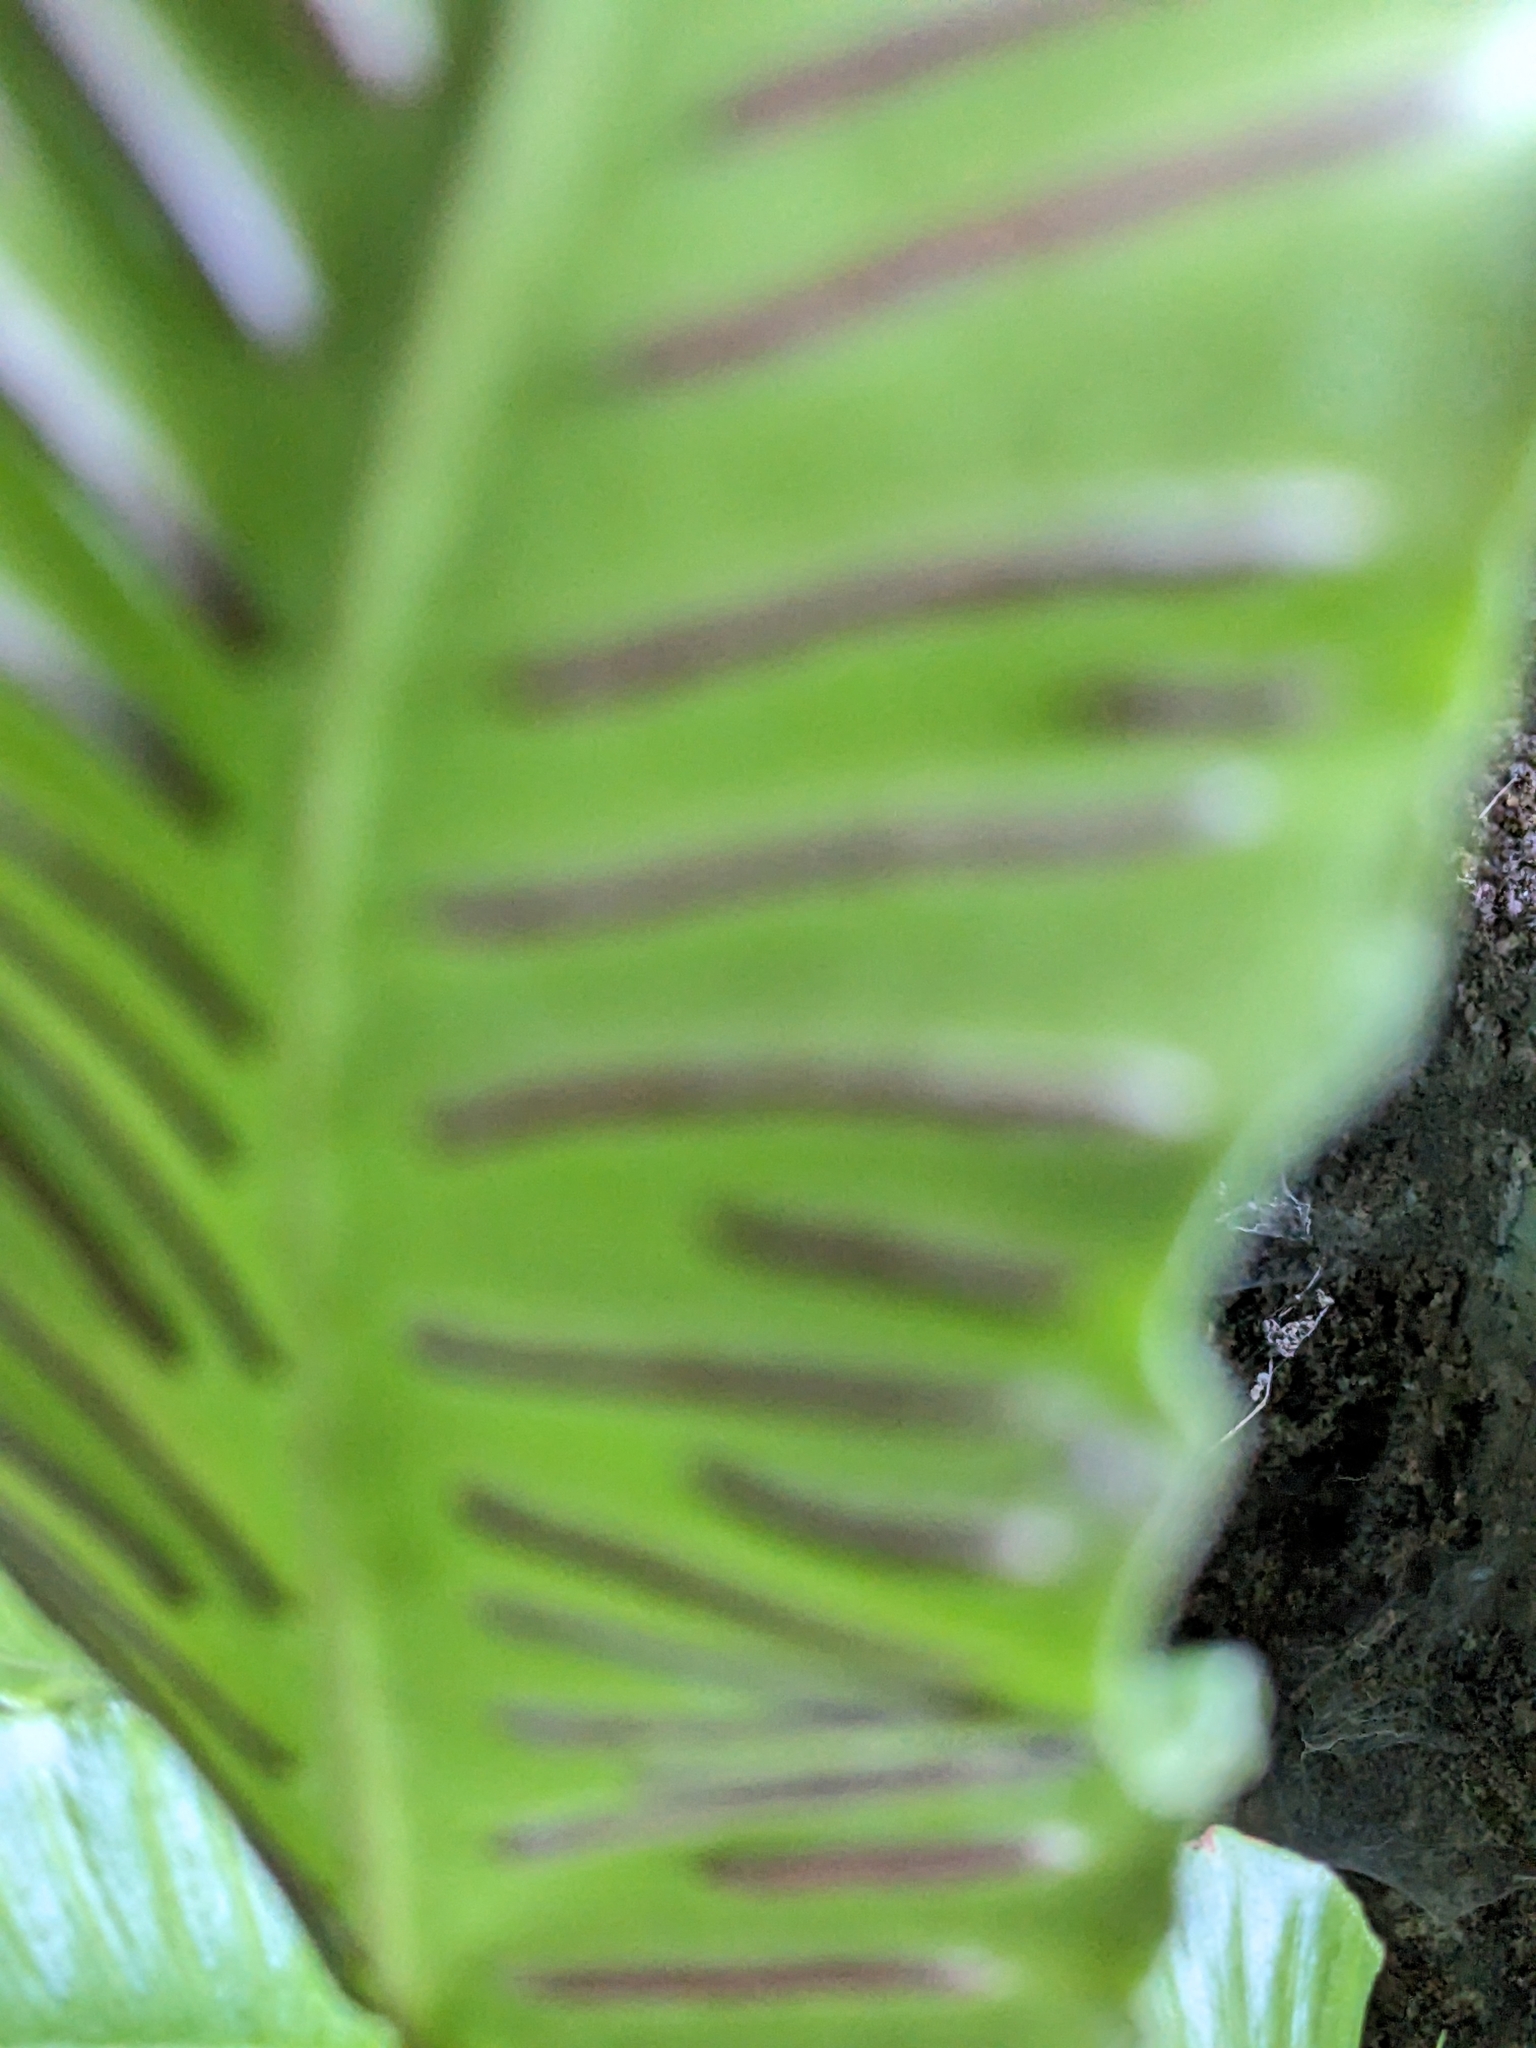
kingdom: Plantae
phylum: Tracheophyta
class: Polypodiopsida
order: Polypodiales
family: Aspleniaceae
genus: Asplenium
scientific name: Asplenium scolopendrium
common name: Hart's-tongue fern
